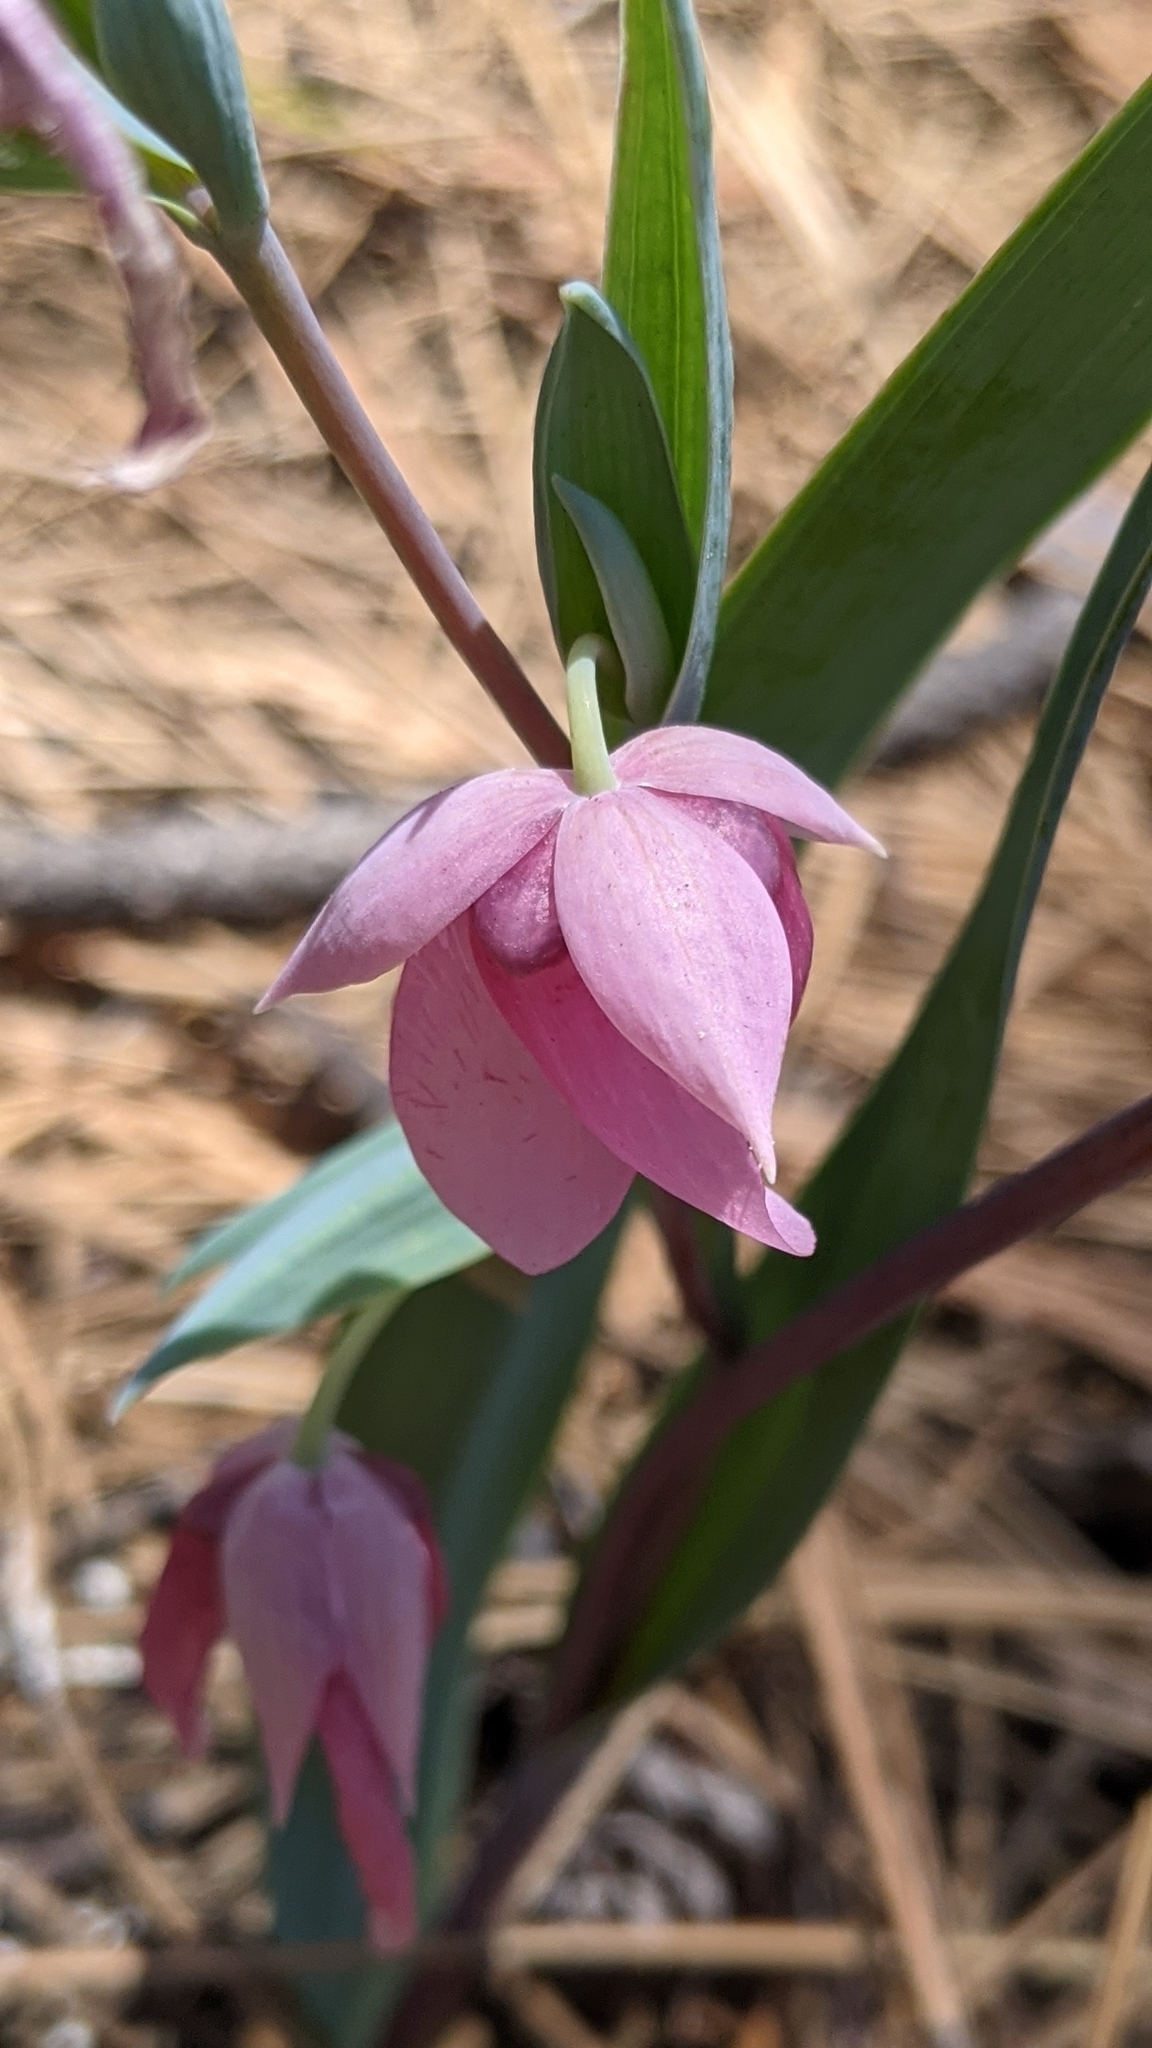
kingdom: Plantae
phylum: Tracheophyta
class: Liliopsida
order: Liliales
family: Liliaceae
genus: Calochortus
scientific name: Calochortus amoenus
